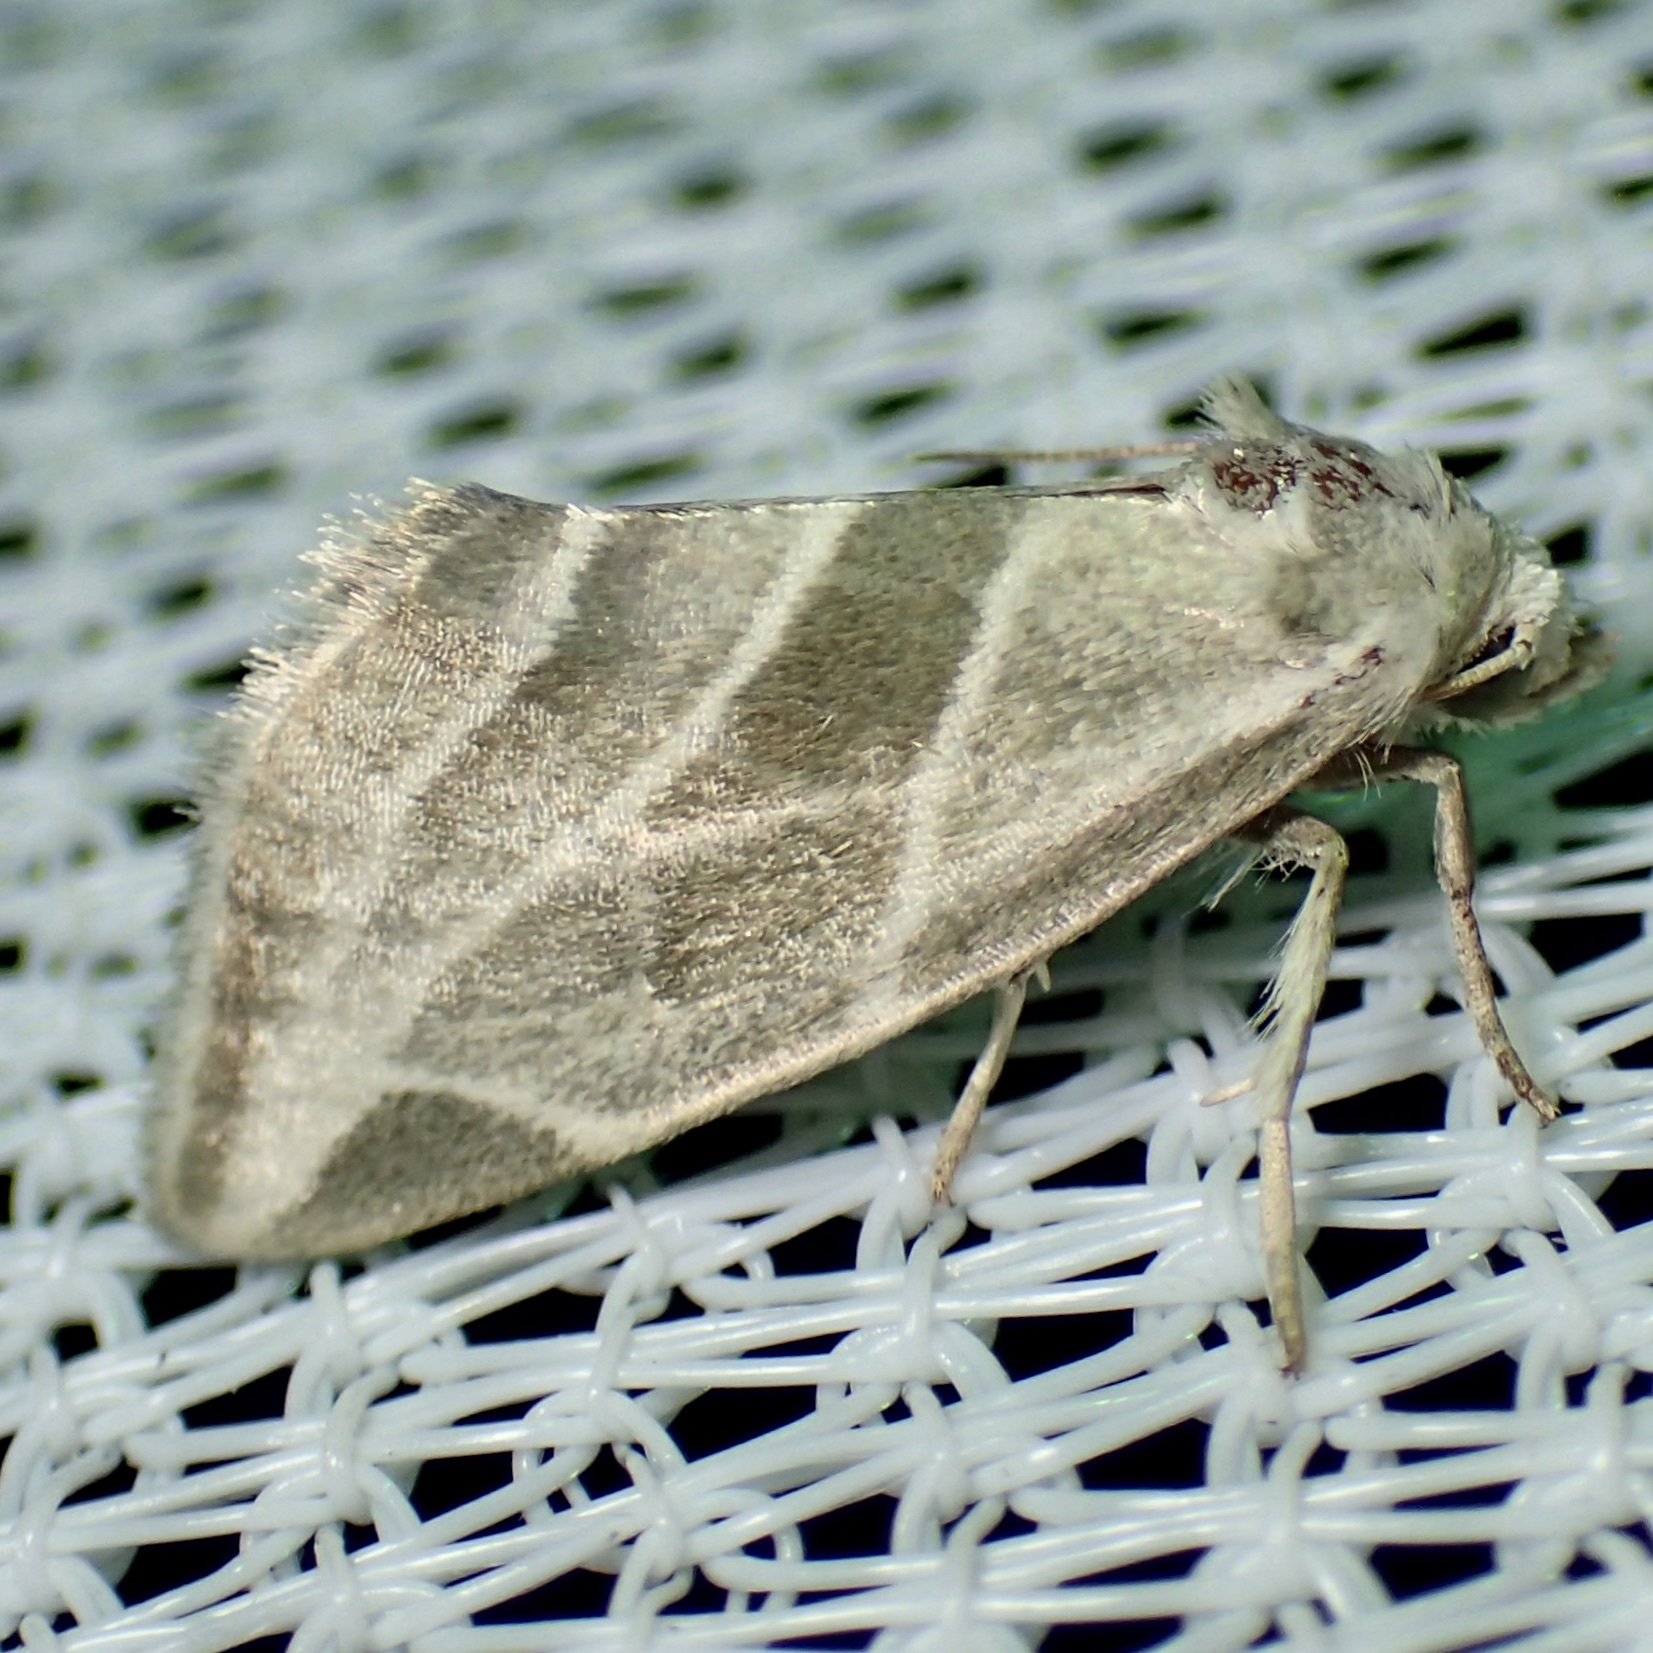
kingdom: Animalia
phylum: Arthropoda
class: Insecta
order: Lepidoptera
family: Noctuidae
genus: Plagiomimicus
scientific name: Plagiomimicus tepperi
